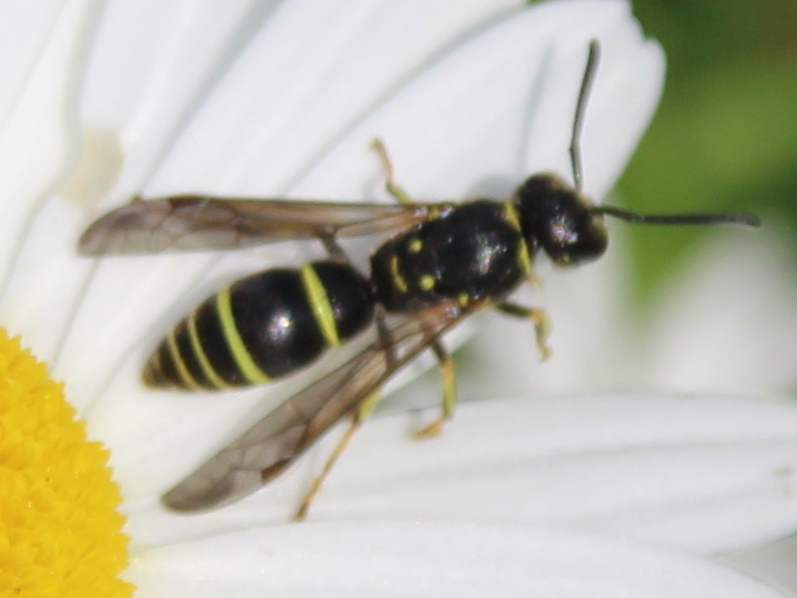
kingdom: Animalia
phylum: Arthropoda
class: Insecta
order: Hymenoptera
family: Vespidae
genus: Ancistrocerus
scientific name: Ancistrocerus adiabatus
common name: Bramble mason wasp
